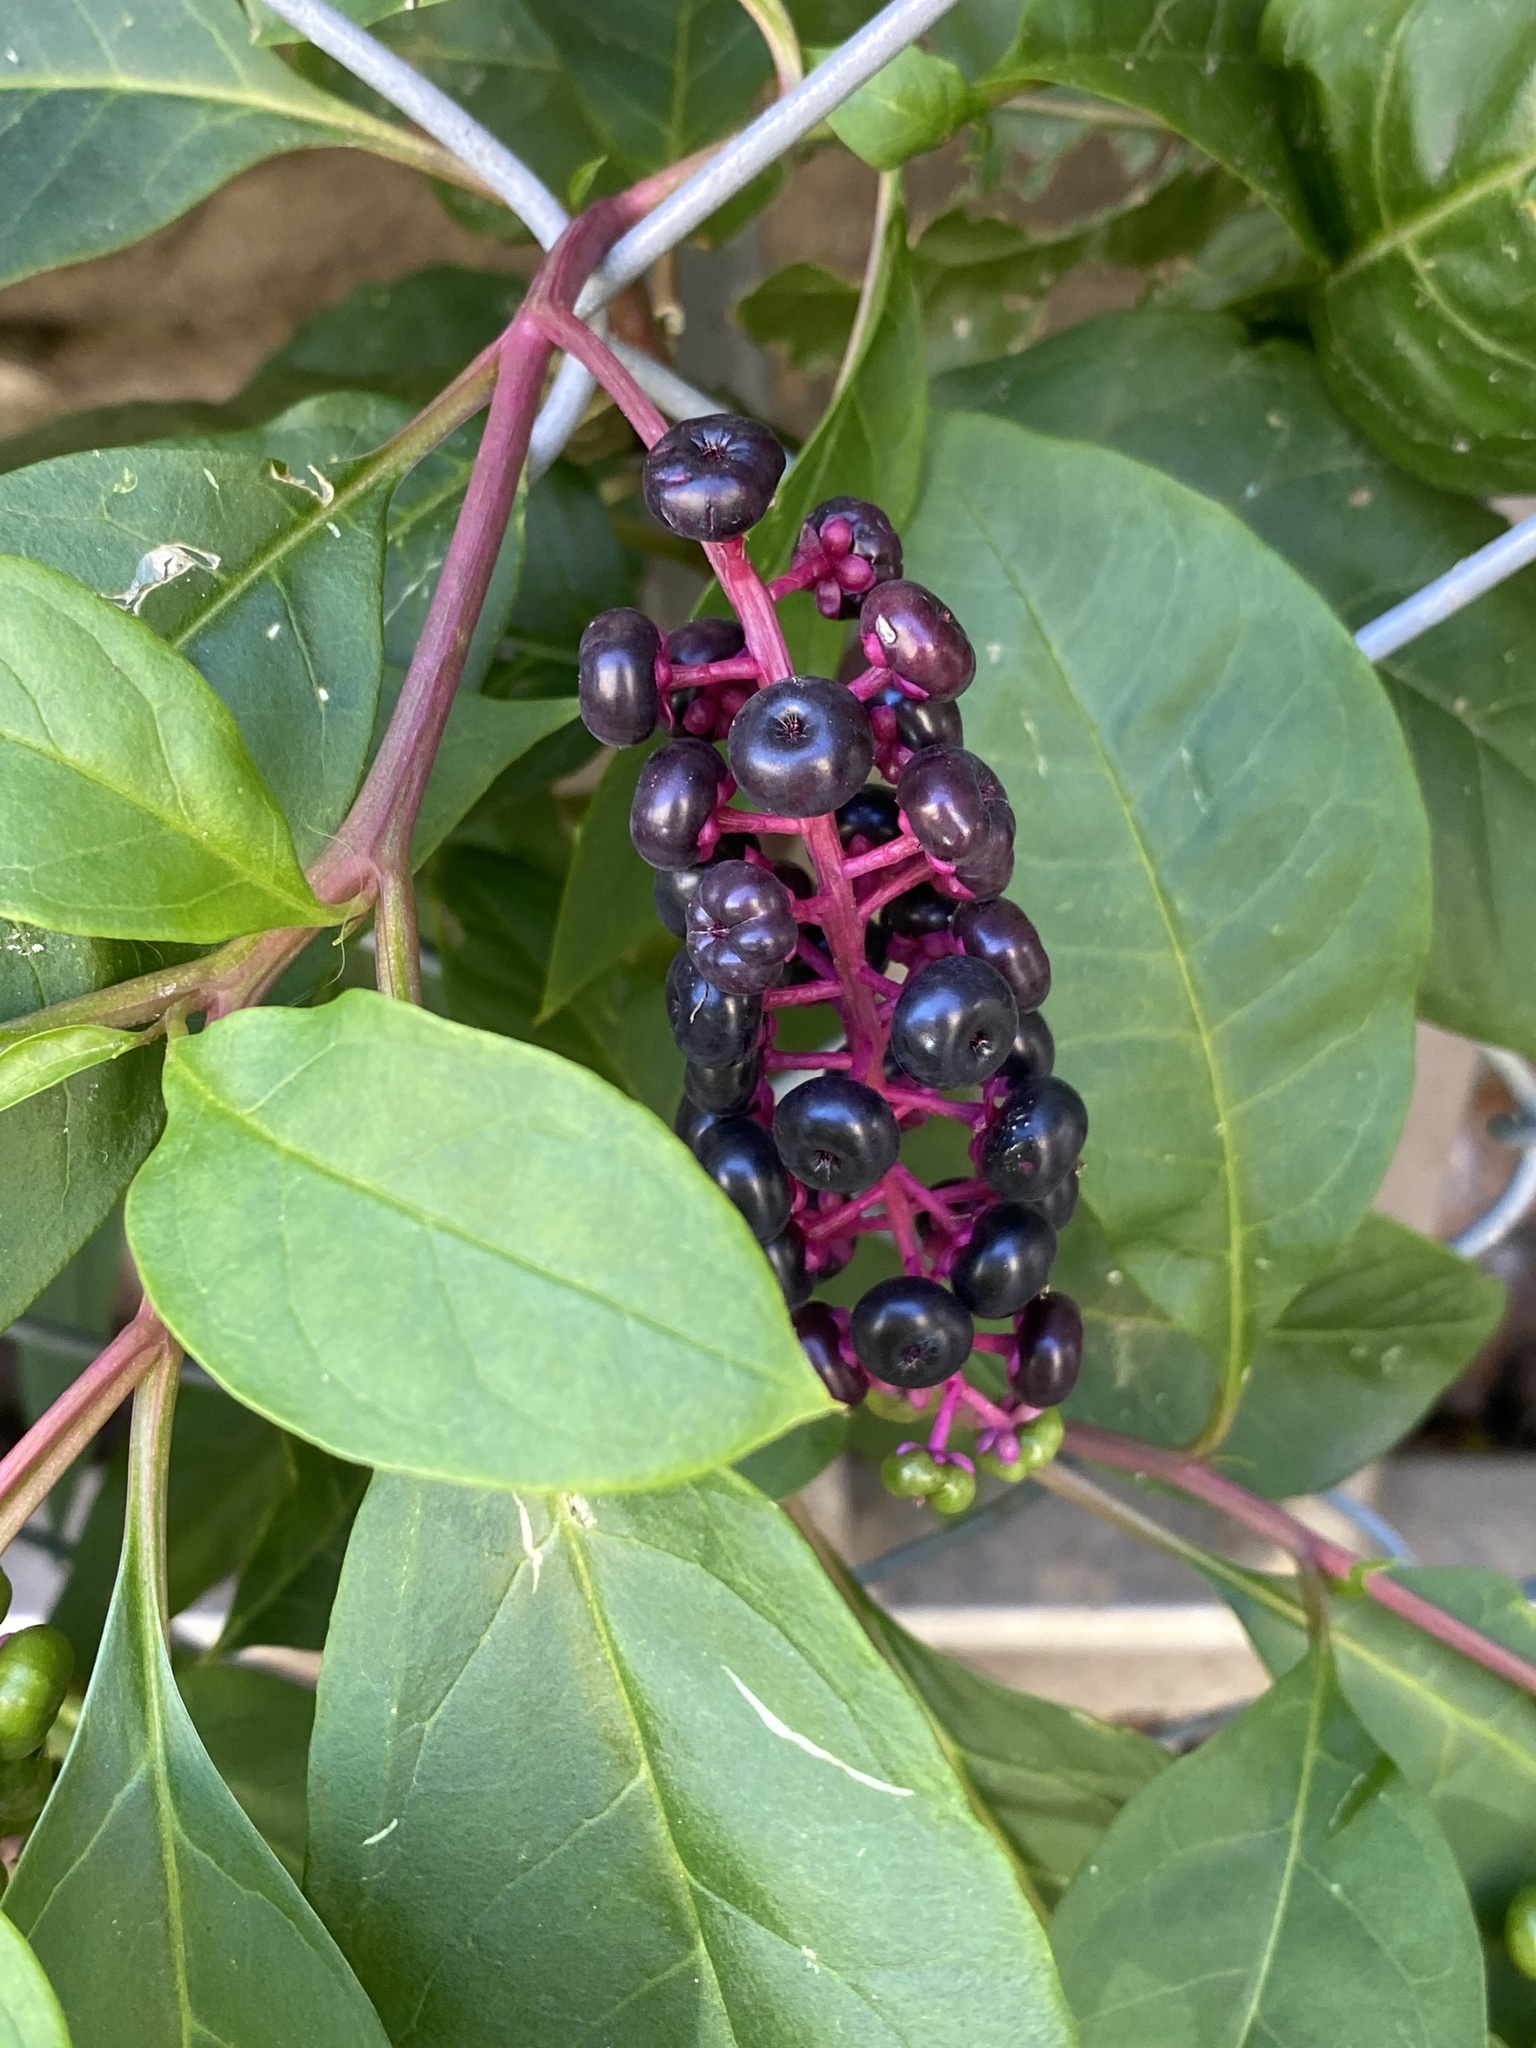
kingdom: Plantae
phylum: Tracheophyta
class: Magnoliopsida
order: Caryophyllales
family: Phytolaccaceae
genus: Phytolacca
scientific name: Phytolacca americana
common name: American pokeweed
